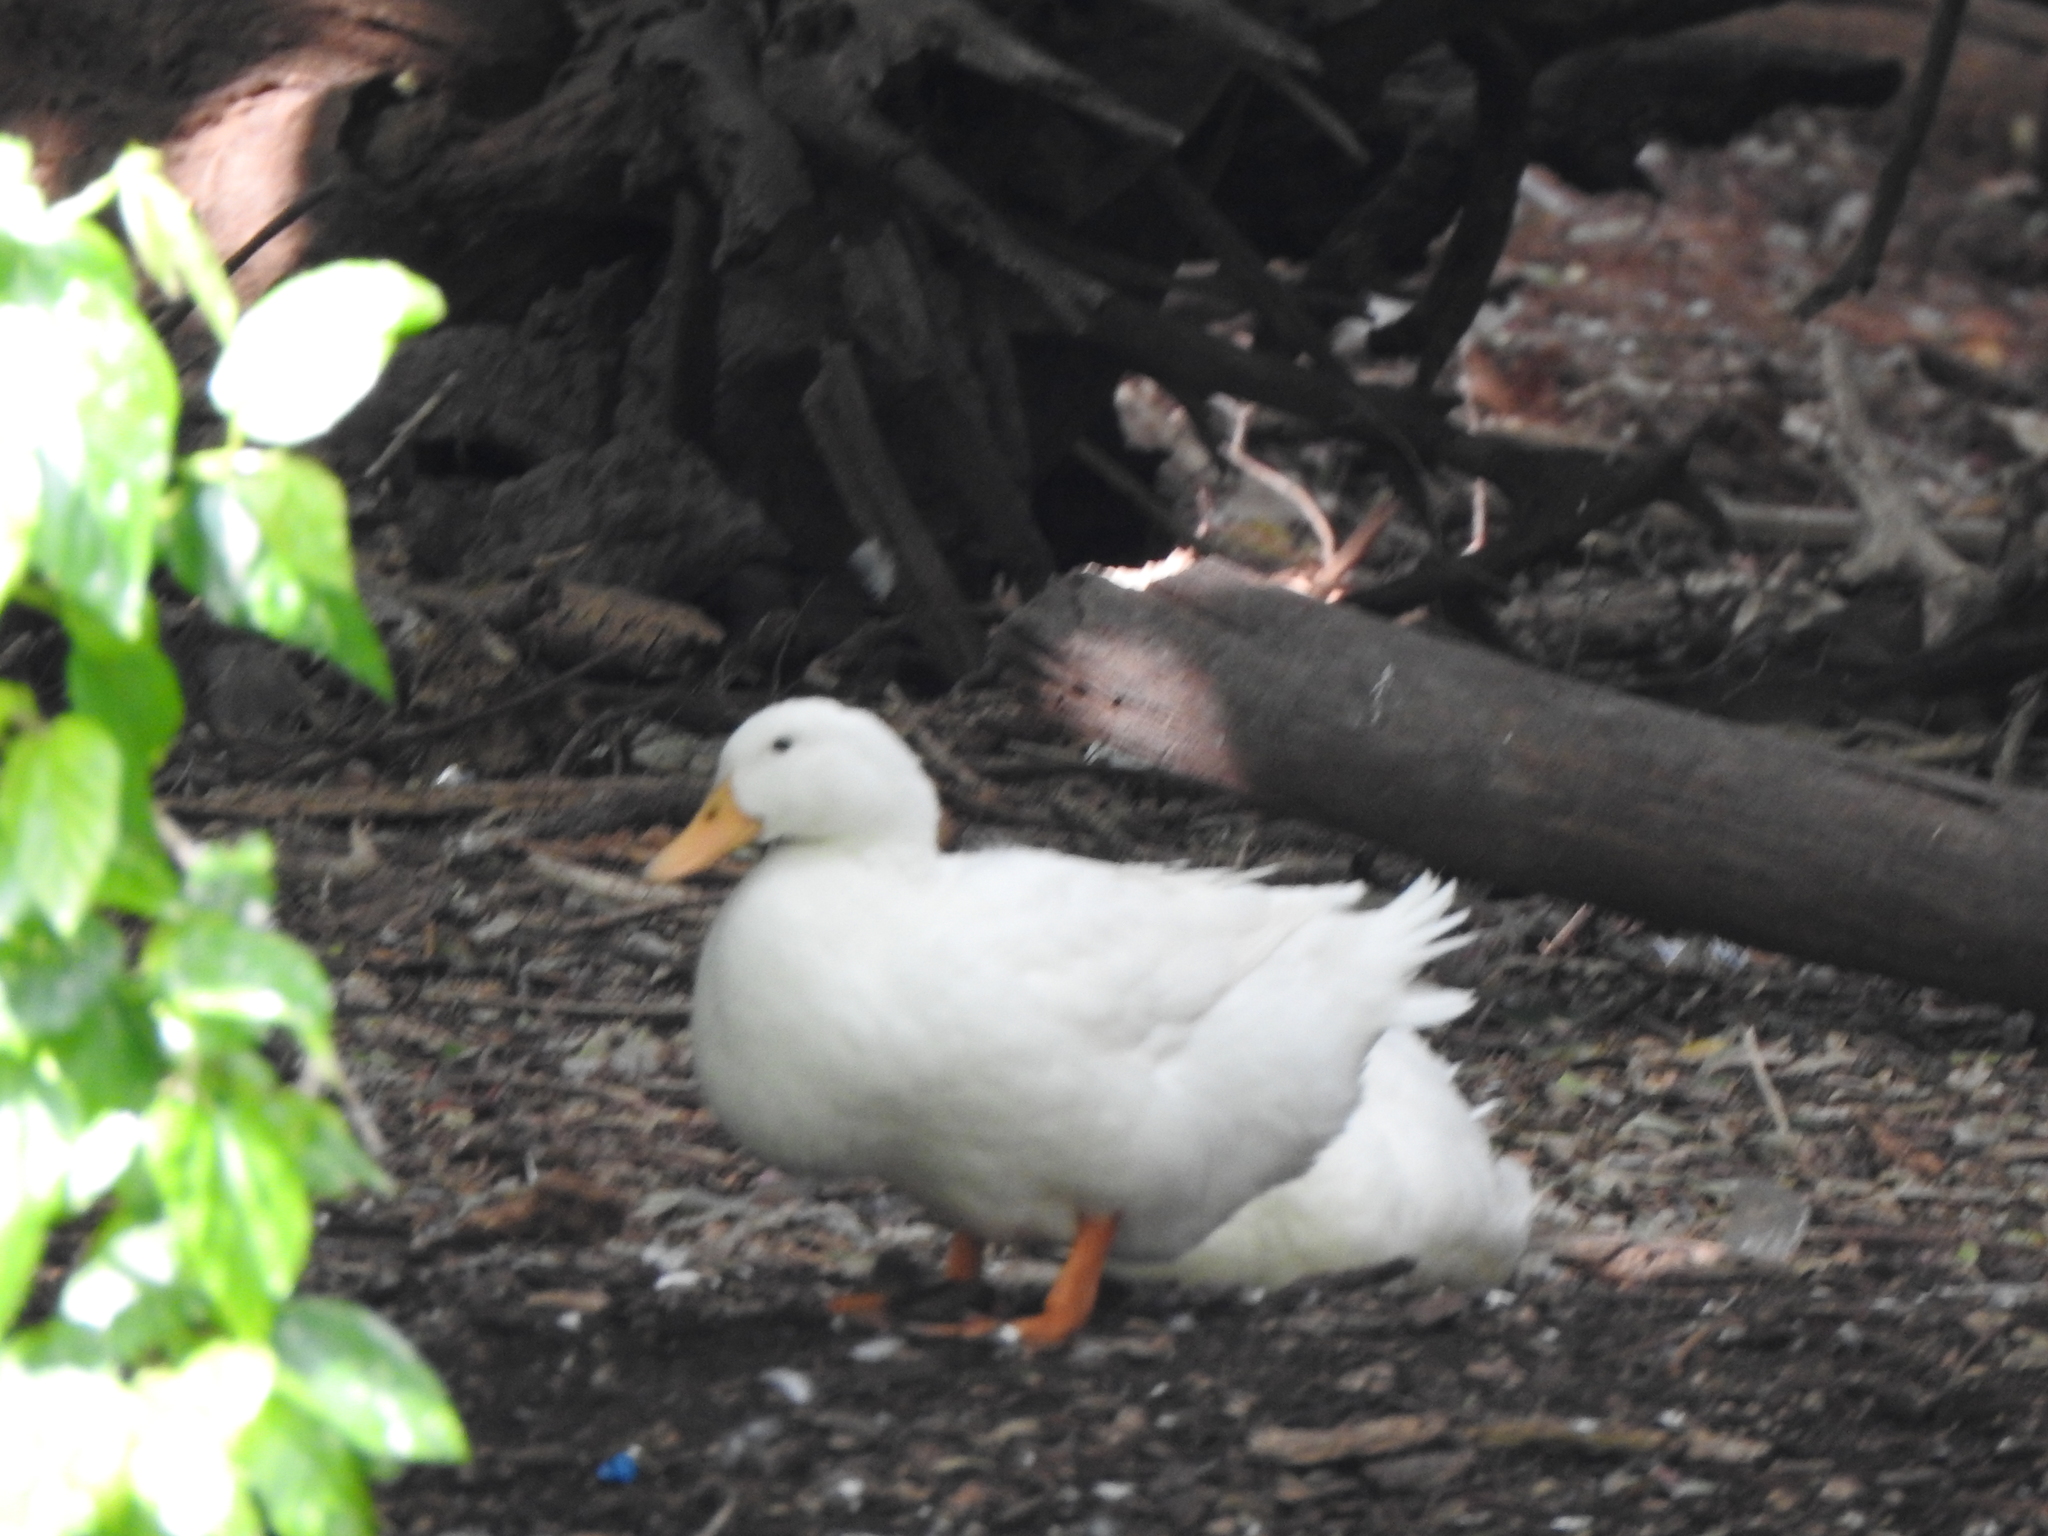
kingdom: Animalia
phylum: Chordata
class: Aves
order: Anseriformes
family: Anatidae
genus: Anas
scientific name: Anas platyrhynchos
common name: Mallard
